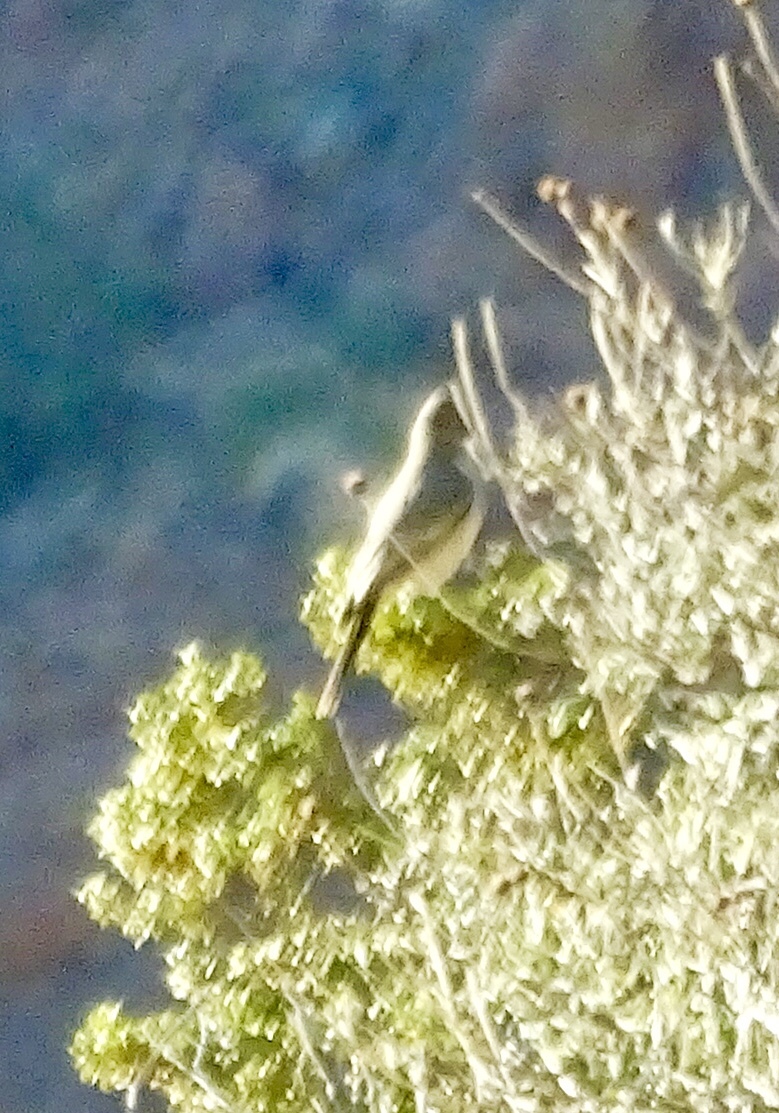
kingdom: Animalia
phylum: Chordata
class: Aves
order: Passeriformes
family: Tyrannidae
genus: Sayornis
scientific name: Sayornis saya
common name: Say's phoebe
